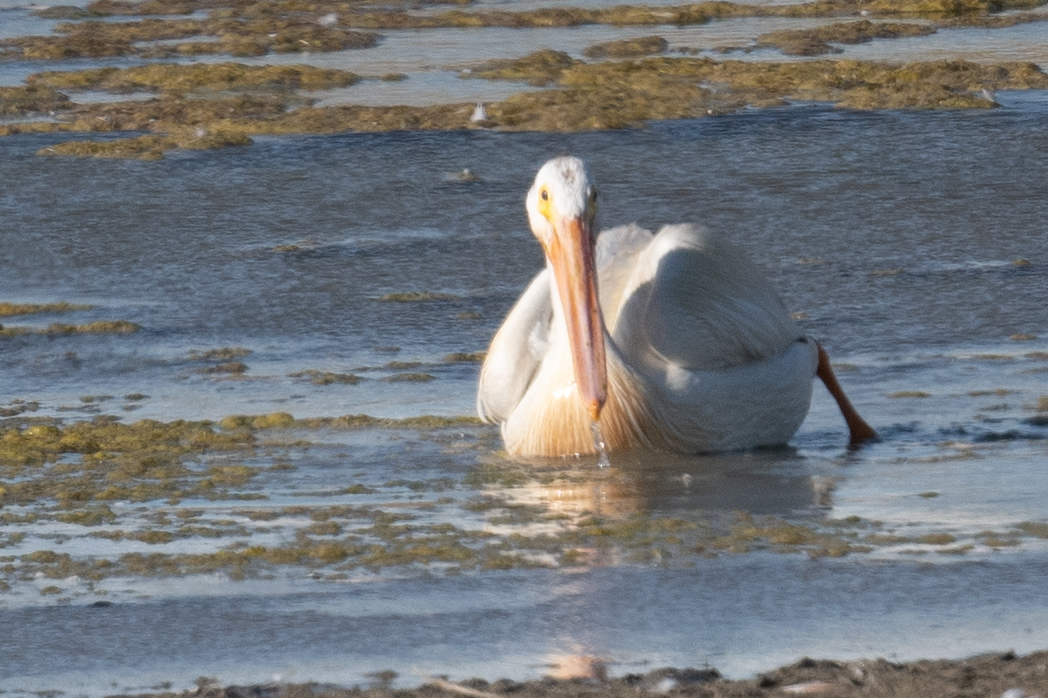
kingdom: Animalia
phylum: Chordata
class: Aves
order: Pelecaniformes
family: Pelecanidae
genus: Pelecanus
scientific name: Pelecanus erythrorhynchos
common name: American white pelican
